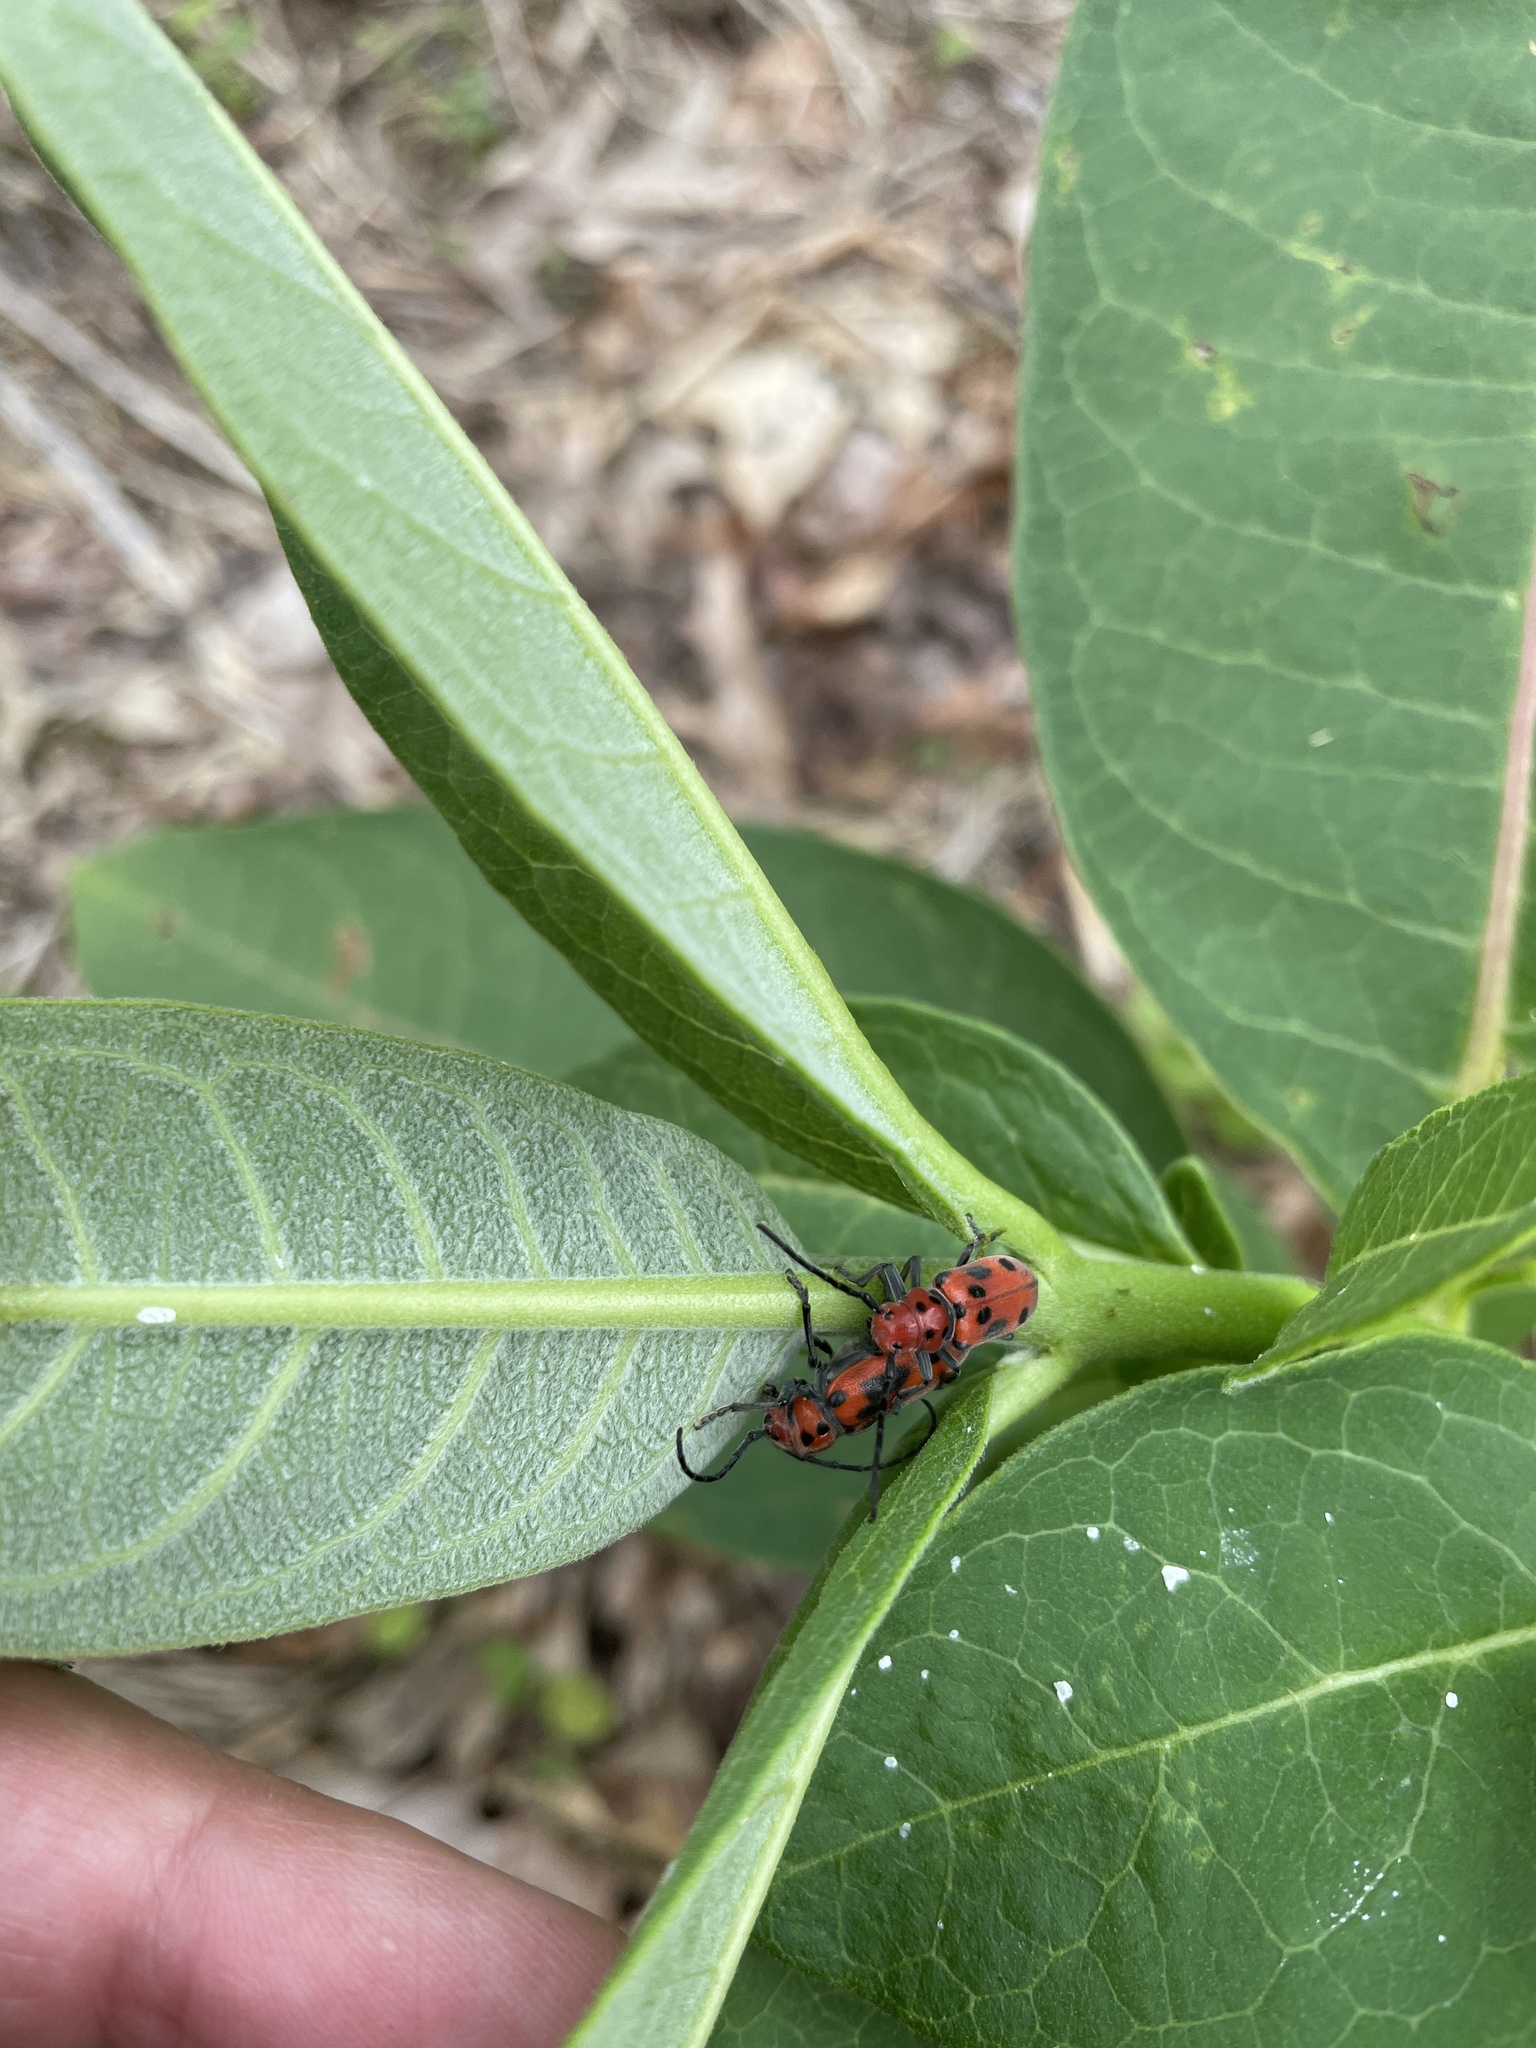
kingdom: Animalia
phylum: Arthropoda
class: Insecta
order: Coleoptera
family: Cerambycidae
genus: Tetraopes
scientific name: Tetraopes tetrophthalmus
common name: Red milkweed beetle
